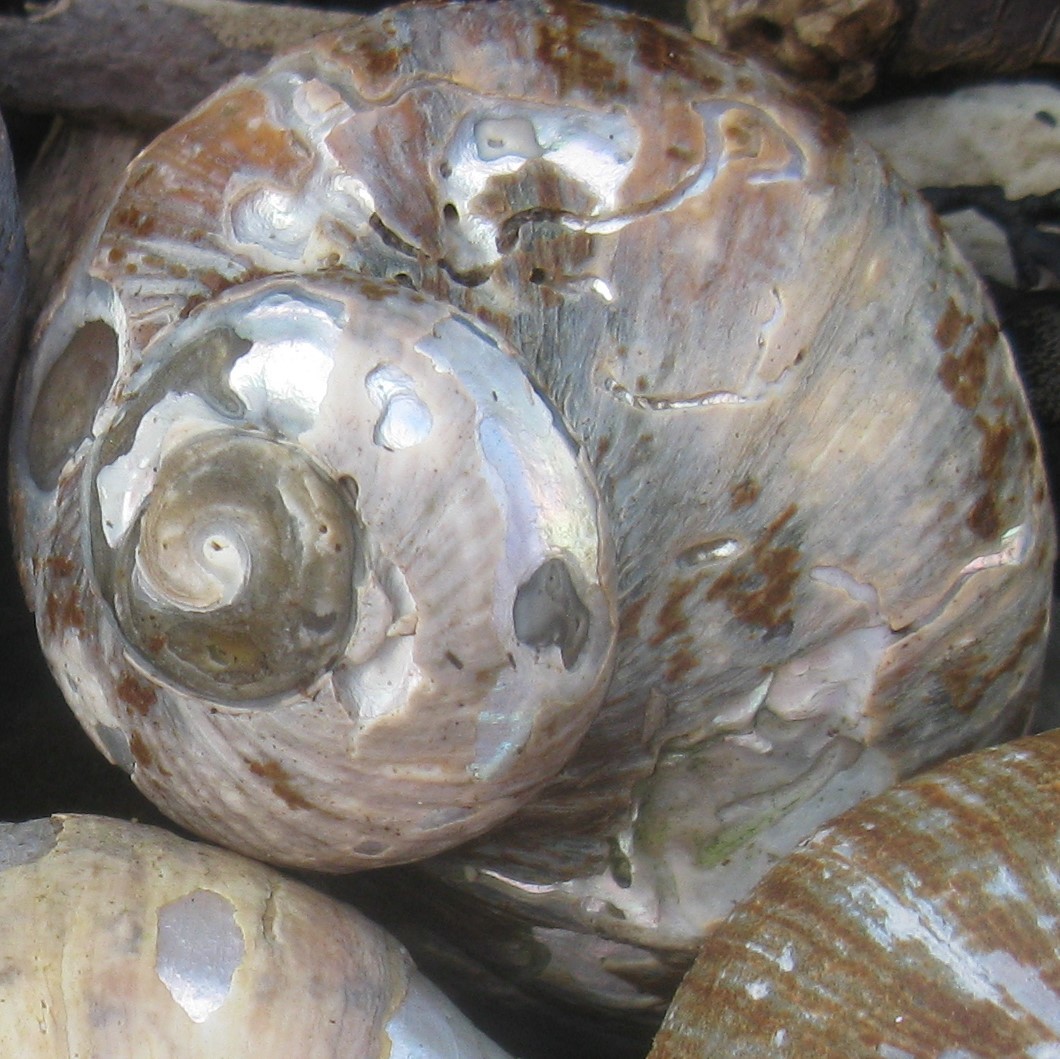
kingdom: Animalia
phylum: Mollusca
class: Gastropoda
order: Trochida
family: Turbinidae
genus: Lunella
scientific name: Lunella smaragda
